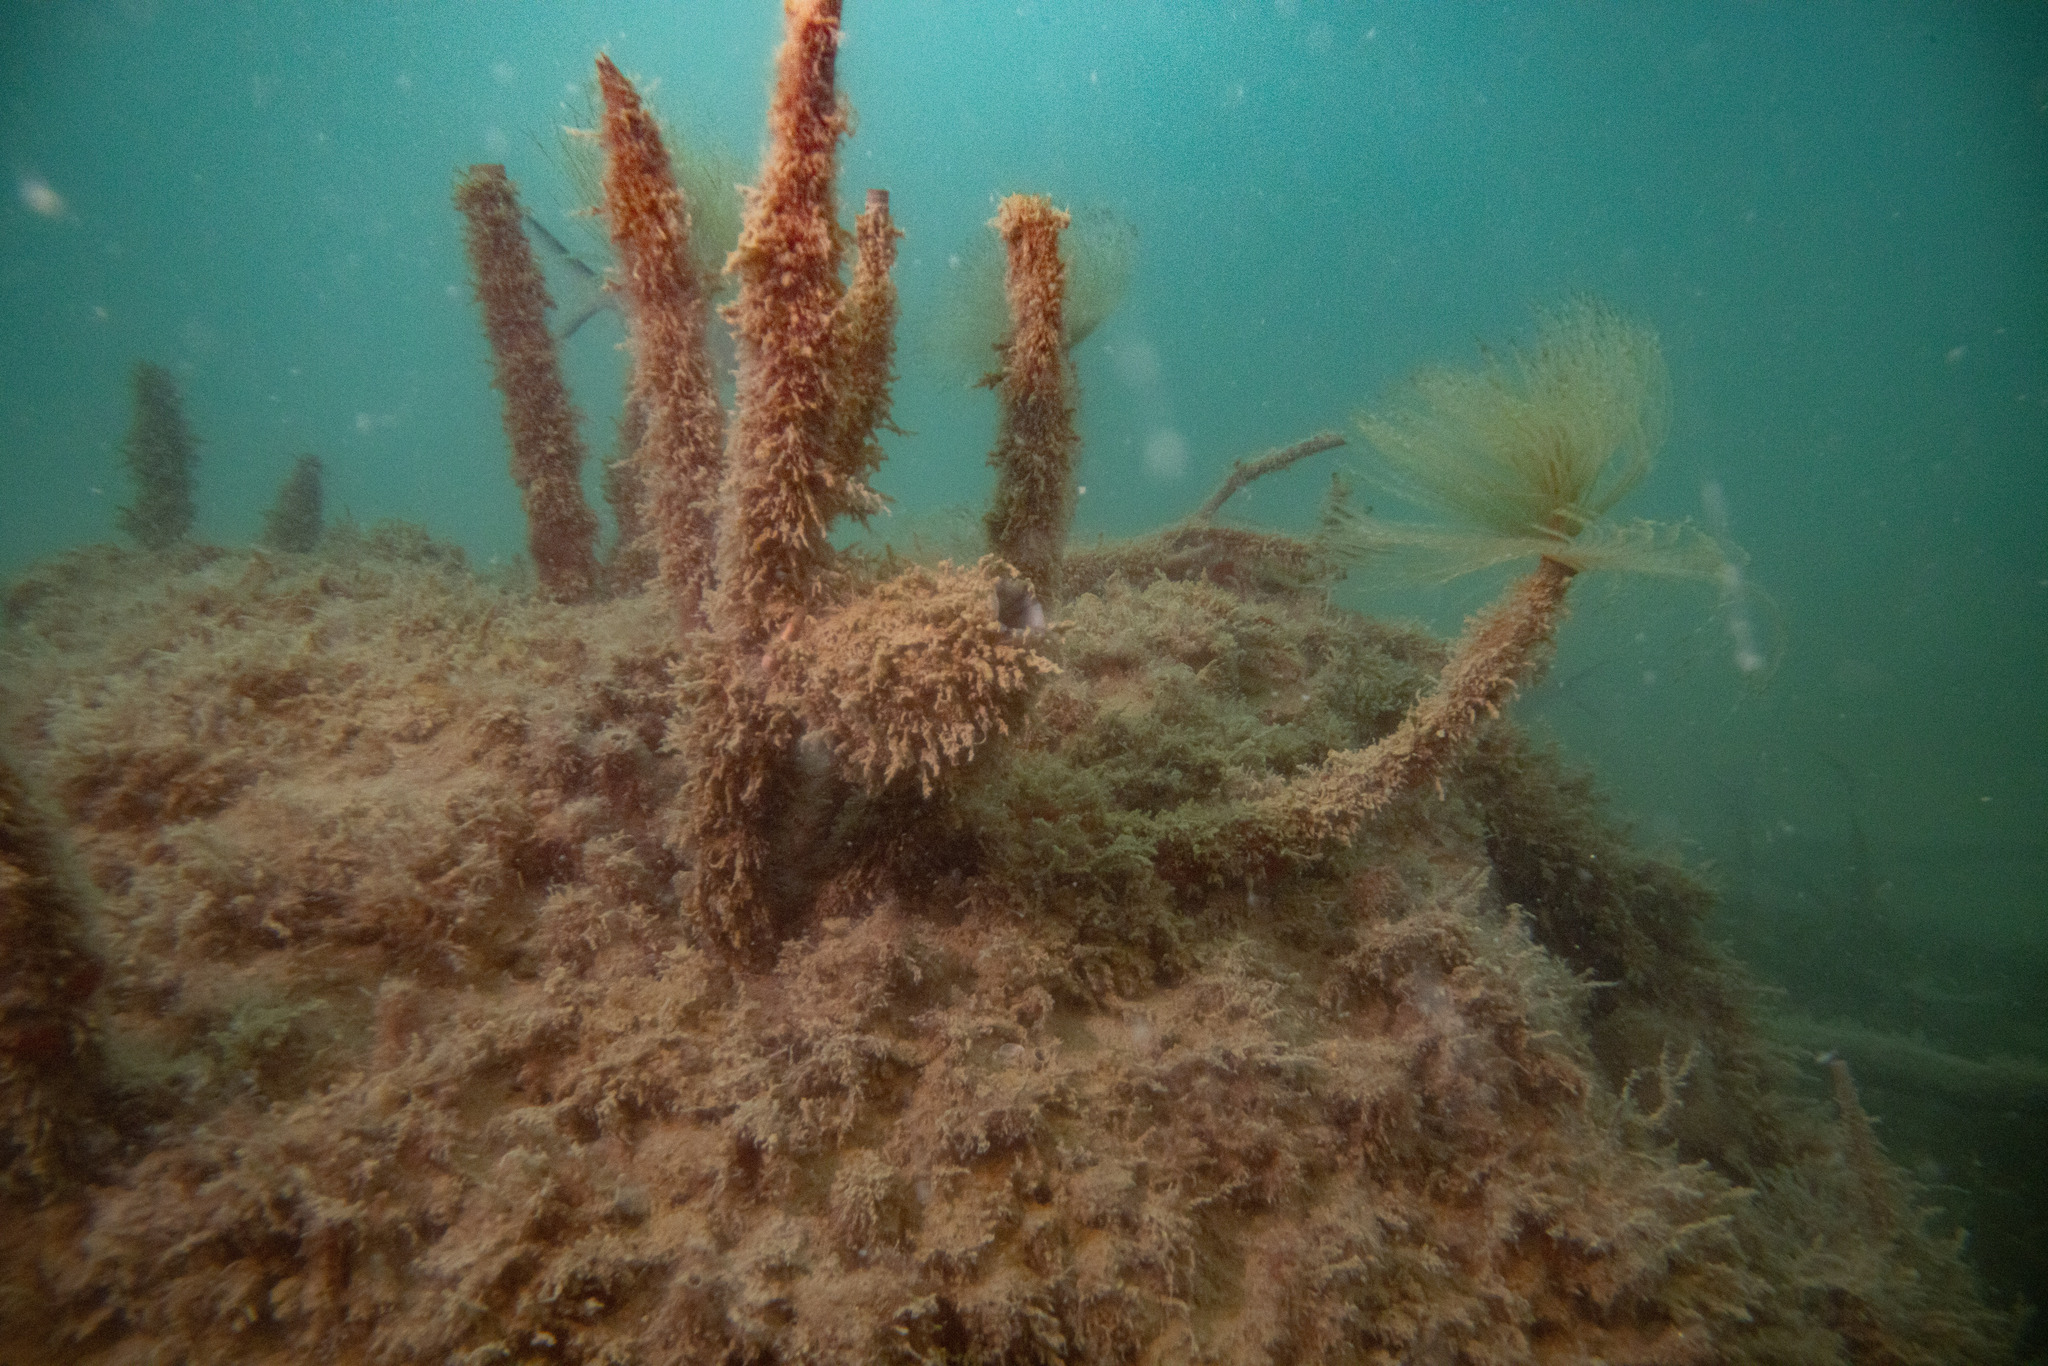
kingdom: Animalia
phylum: Chordata
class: Ascidiacea
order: Stolidobranchia
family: Styelidae
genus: Styela
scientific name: Styela plicata
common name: Pleated tunicate
